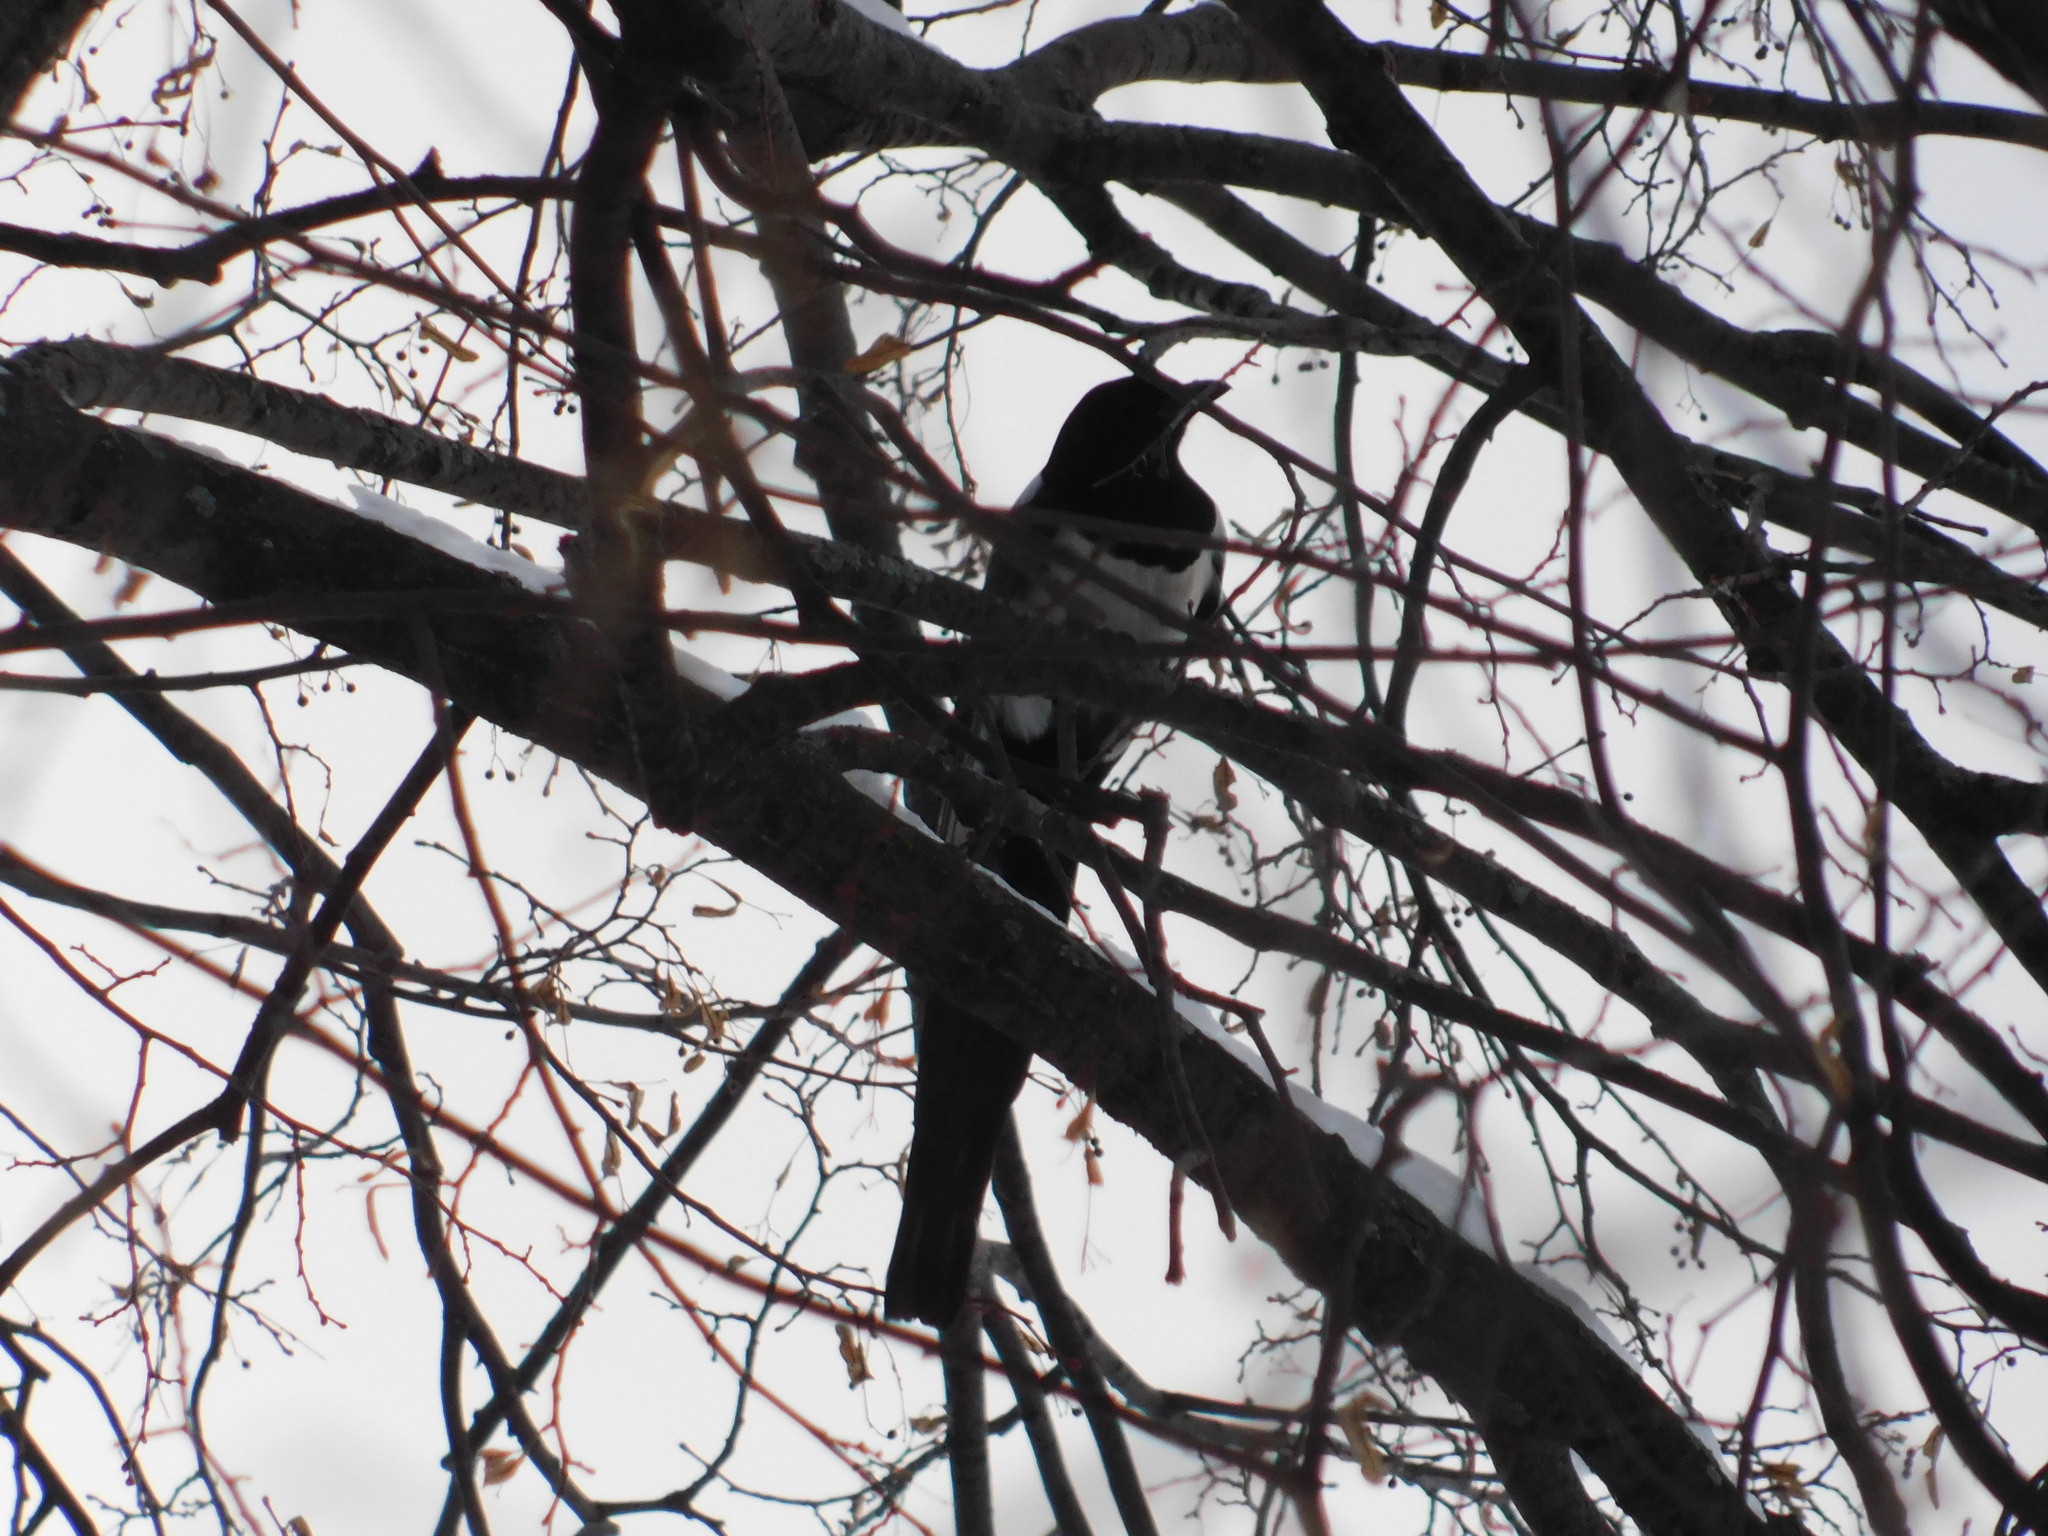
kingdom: Animalia
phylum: Chordata
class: Aves
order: Passeriformes
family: Corvidae
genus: Pica
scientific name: Pica pica
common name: Eurasian magpie
